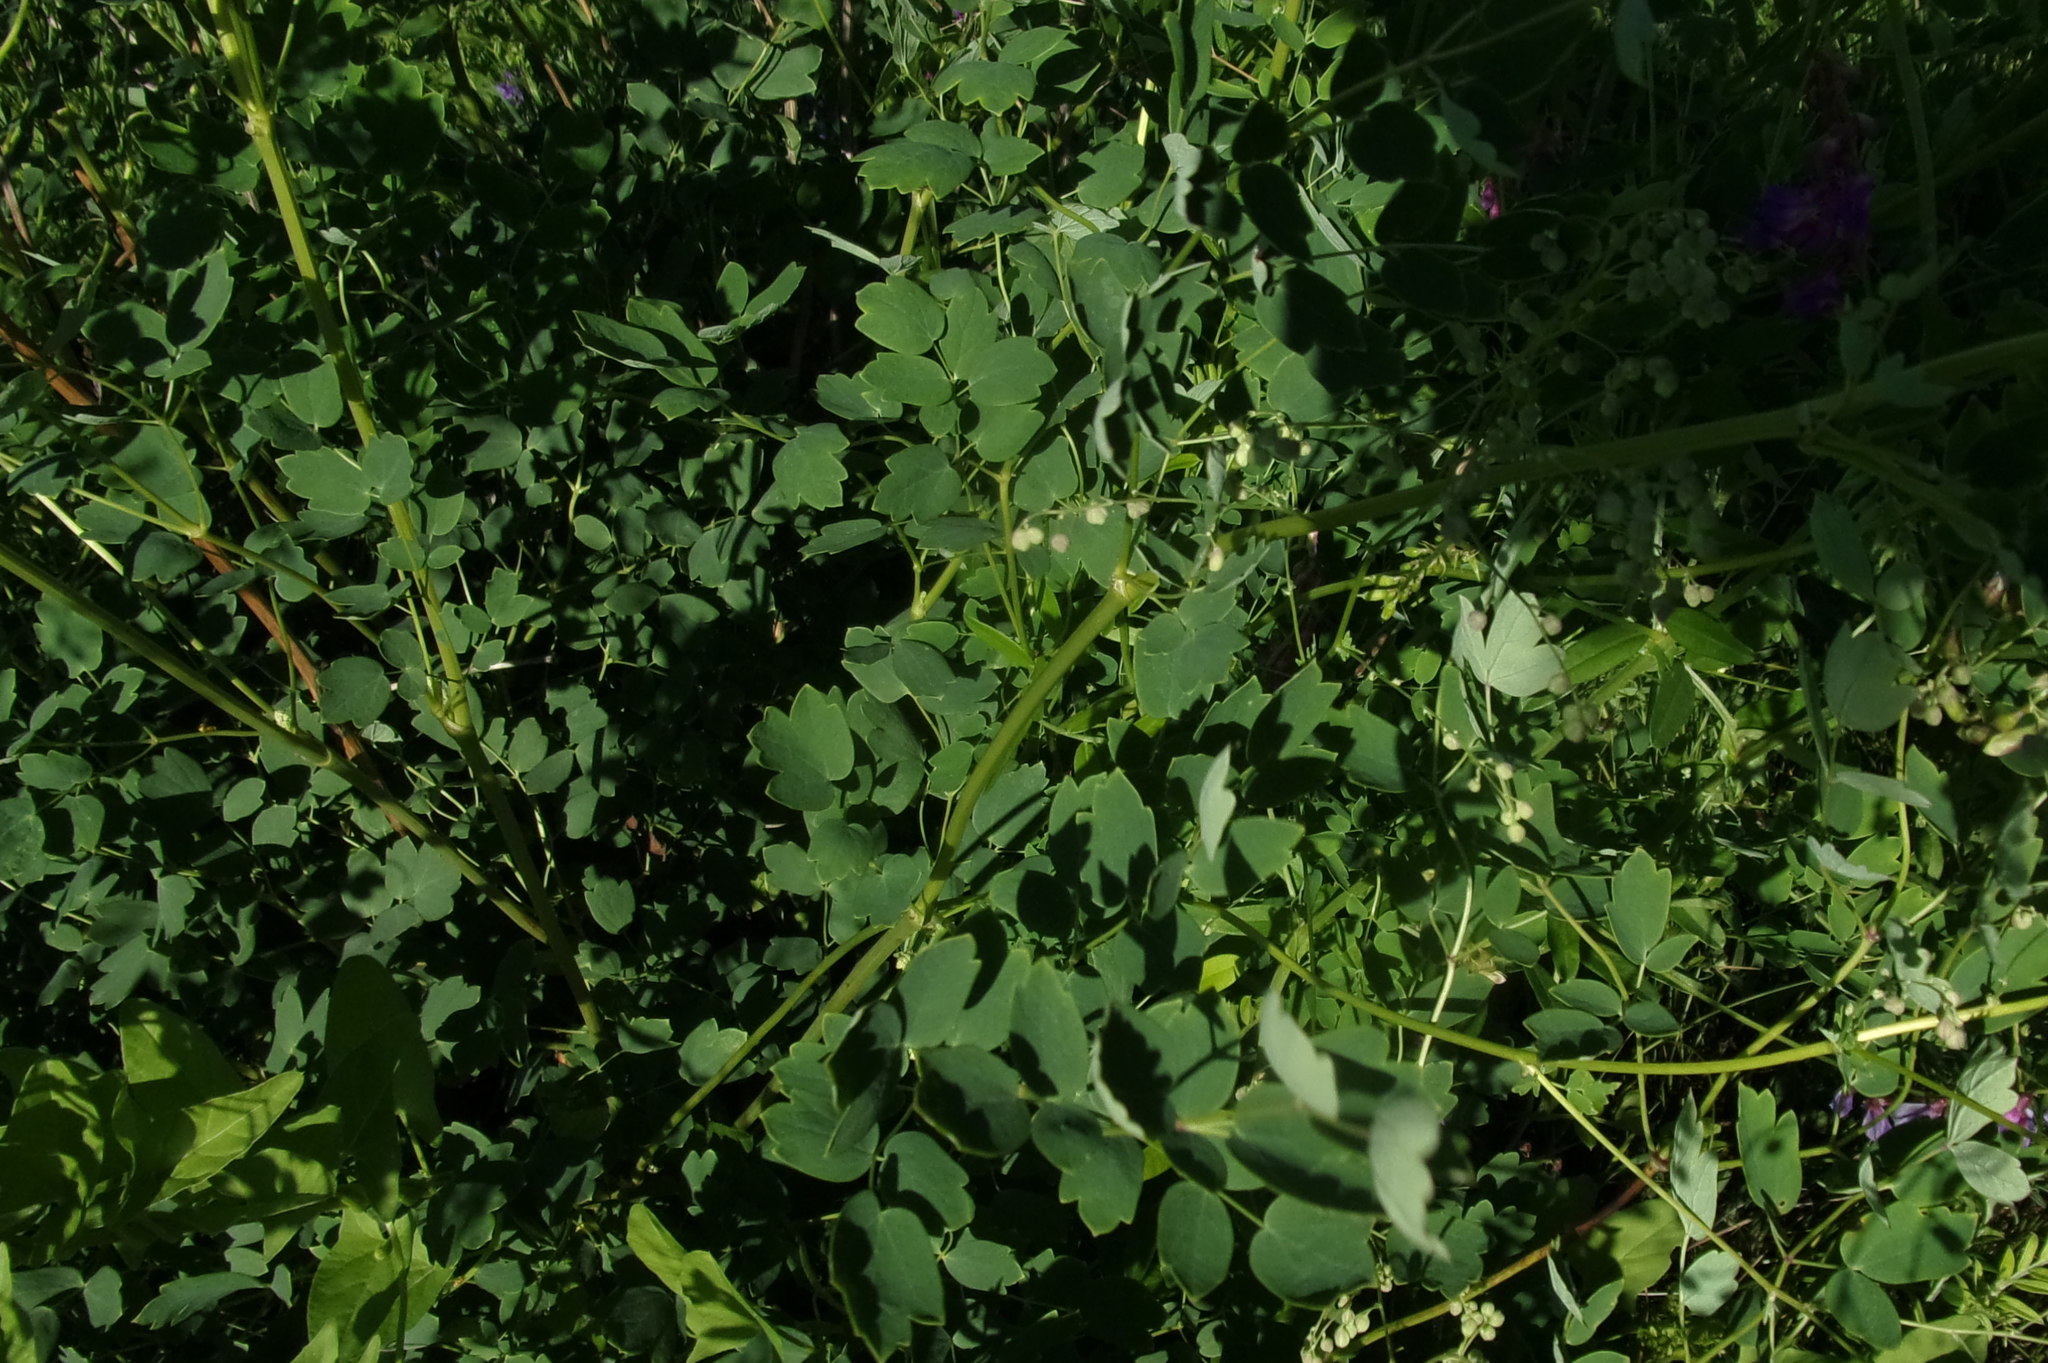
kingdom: Plantae
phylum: Tracheophyta
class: Magnoliopsida
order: Ranunculales
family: Ranunculaceae
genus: Thalictrum
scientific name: Thalictrum minus
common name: Lesser meadow-rue
